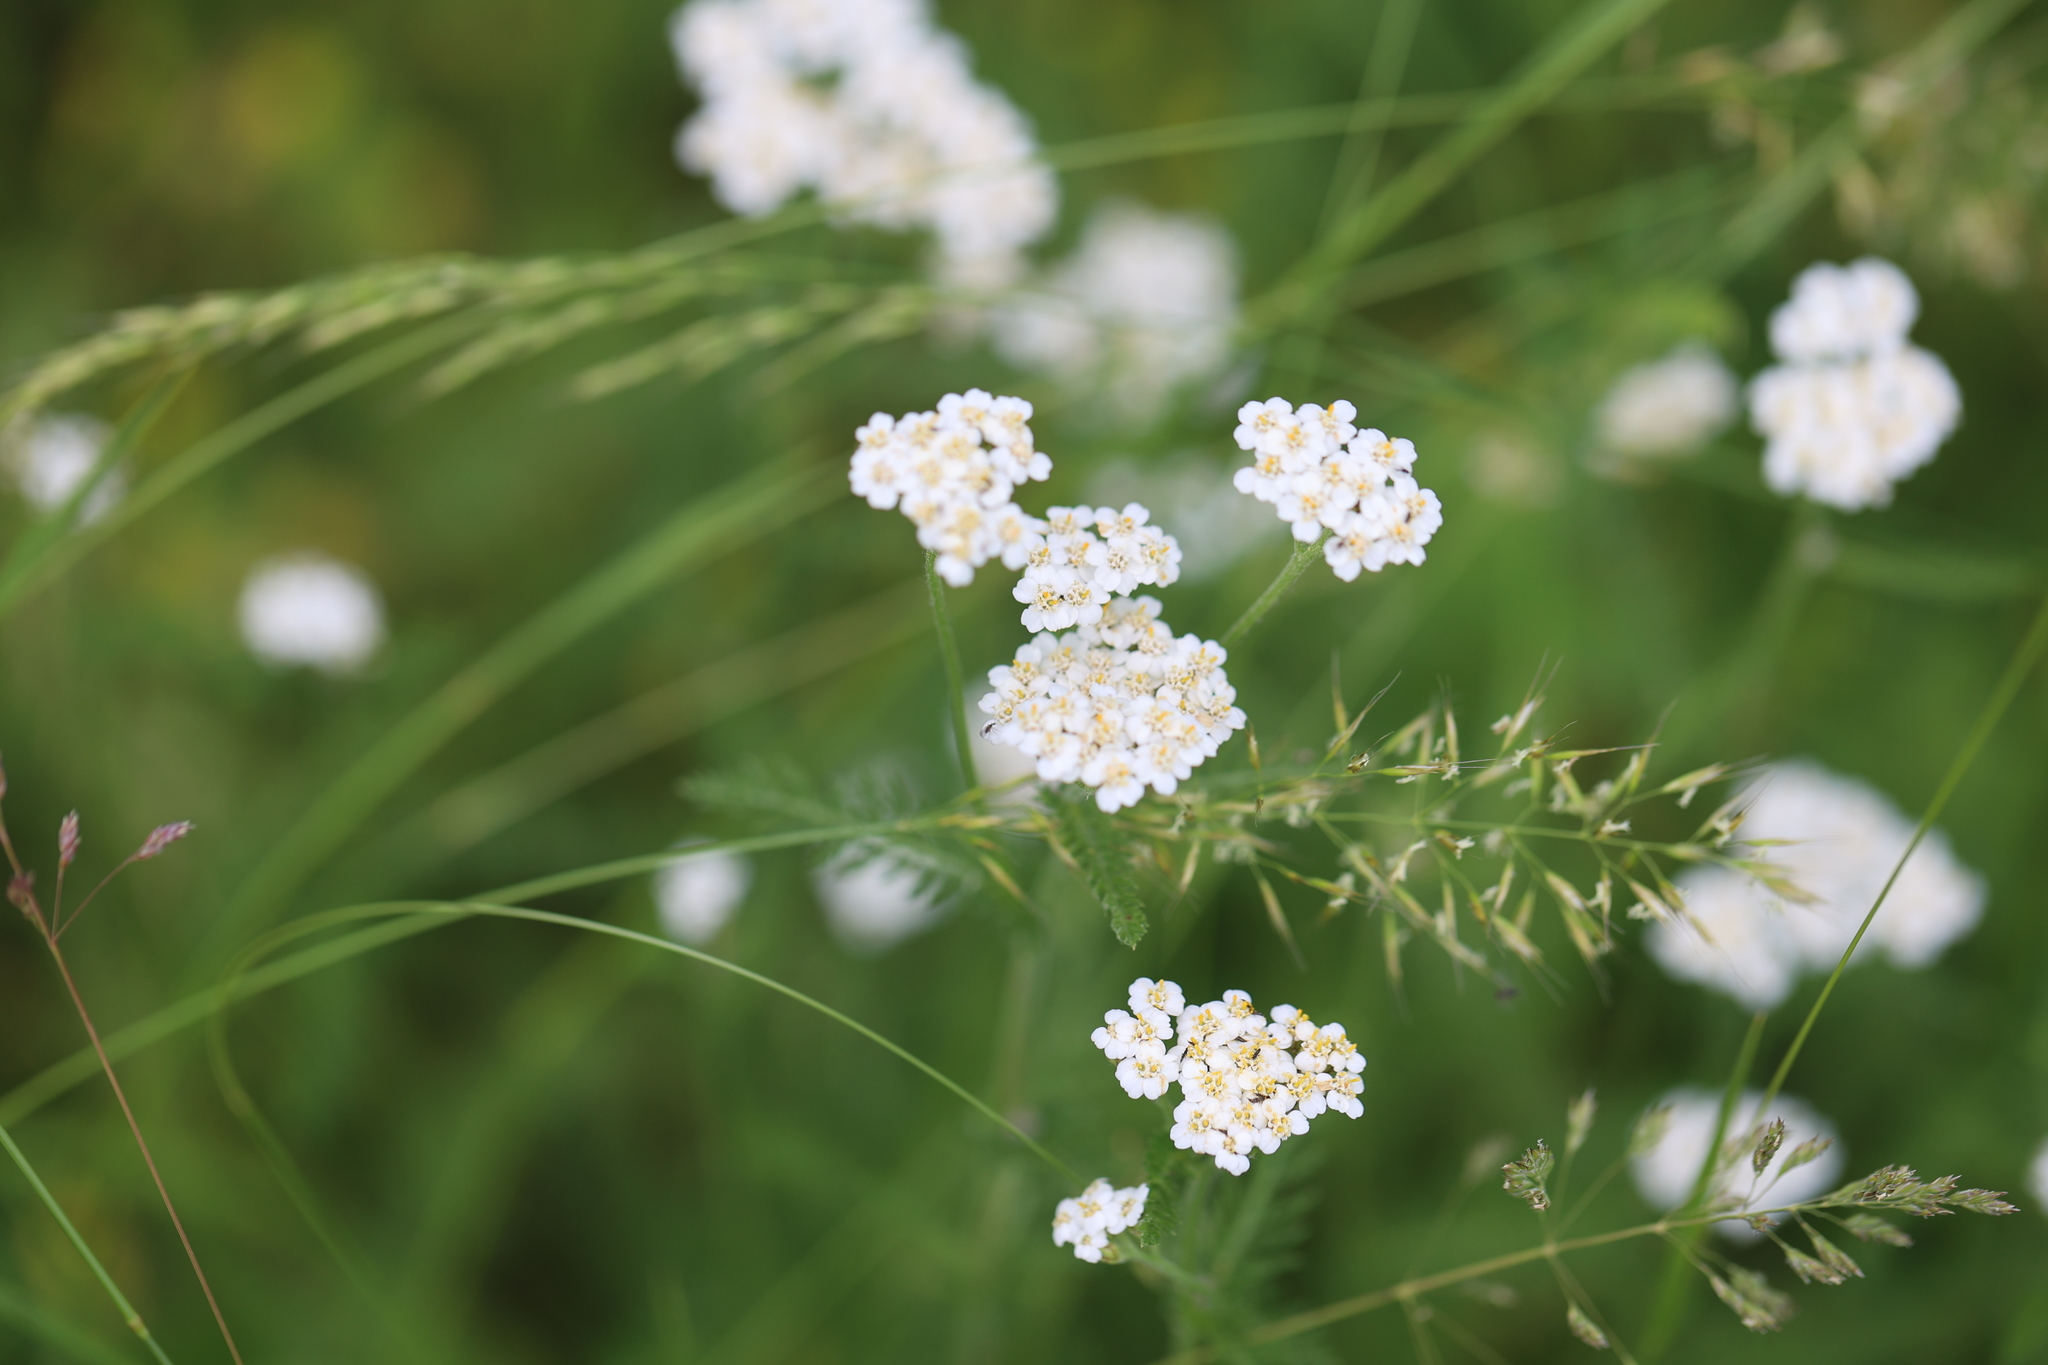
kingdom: Plantae
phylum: Tracheophyta
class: Magnoliopsida
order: Asterales
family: Asteraceae
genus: Achillea
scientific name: Achillea millefolium
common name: Yarrow
